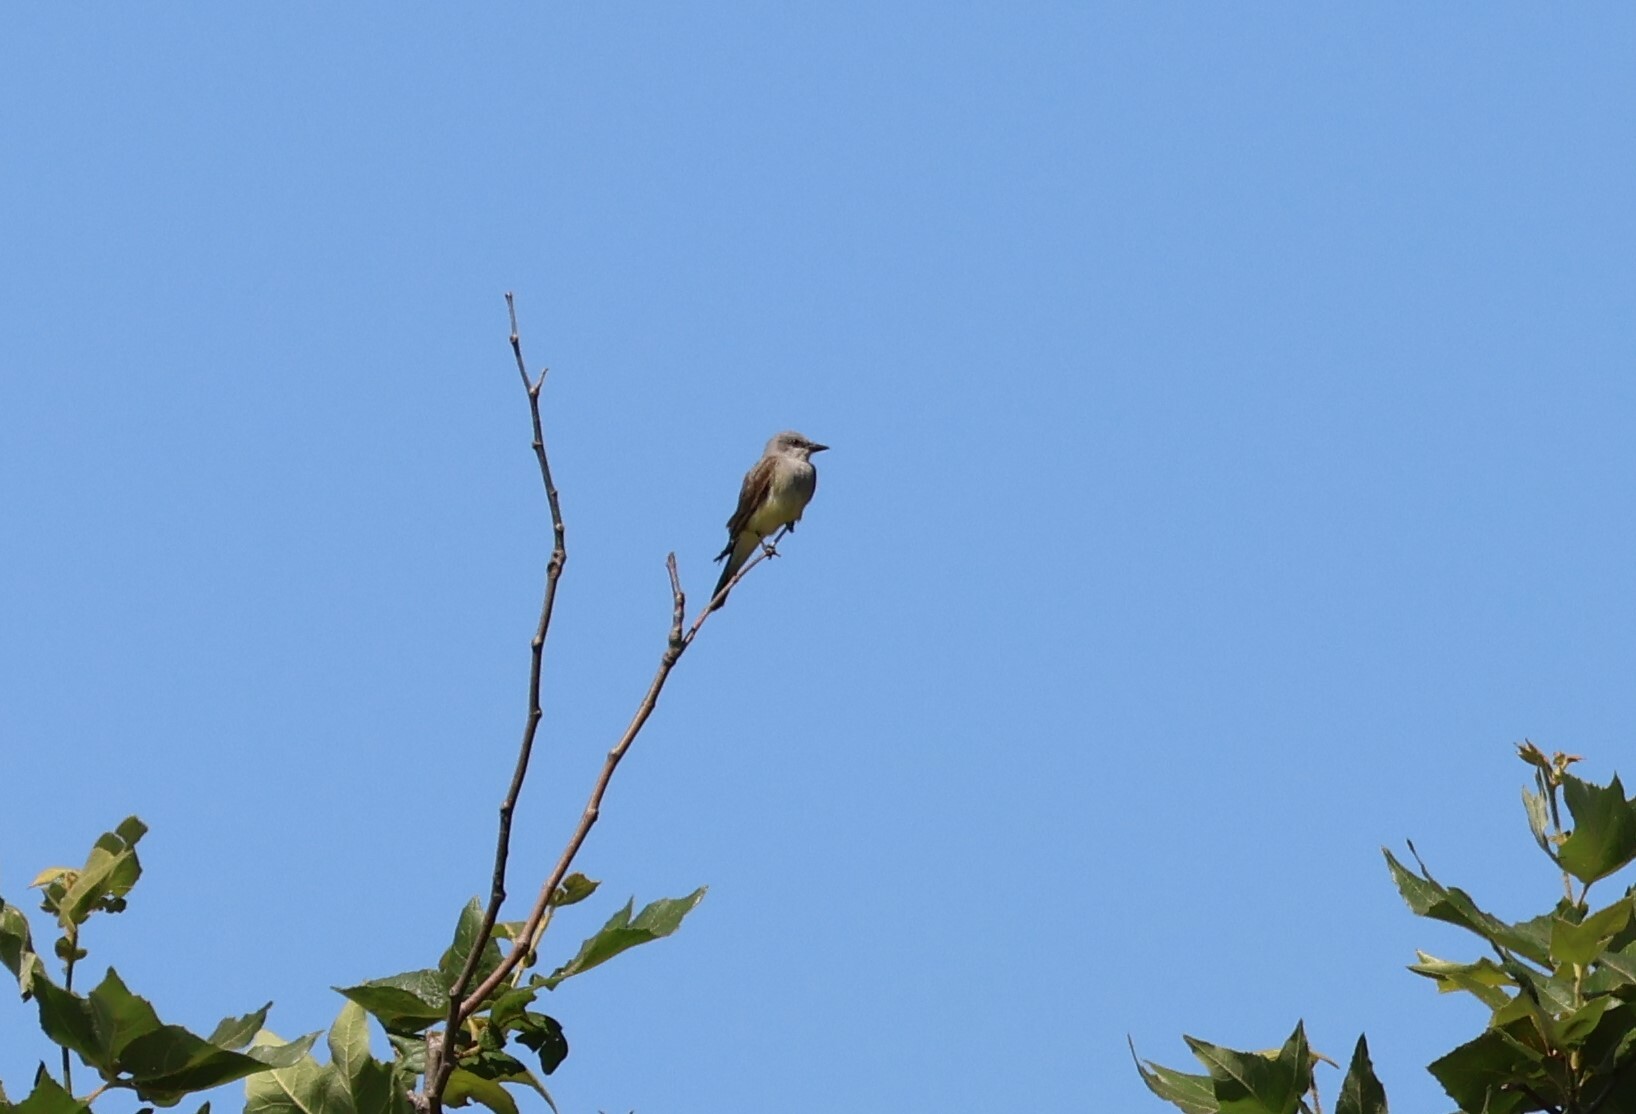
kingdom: Animalia
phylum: Chordata
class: Aves
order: Passeriformes
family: Tyrannidae
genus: Tyrannus
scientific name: Tyrannus verticalis
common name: Western kingbird
